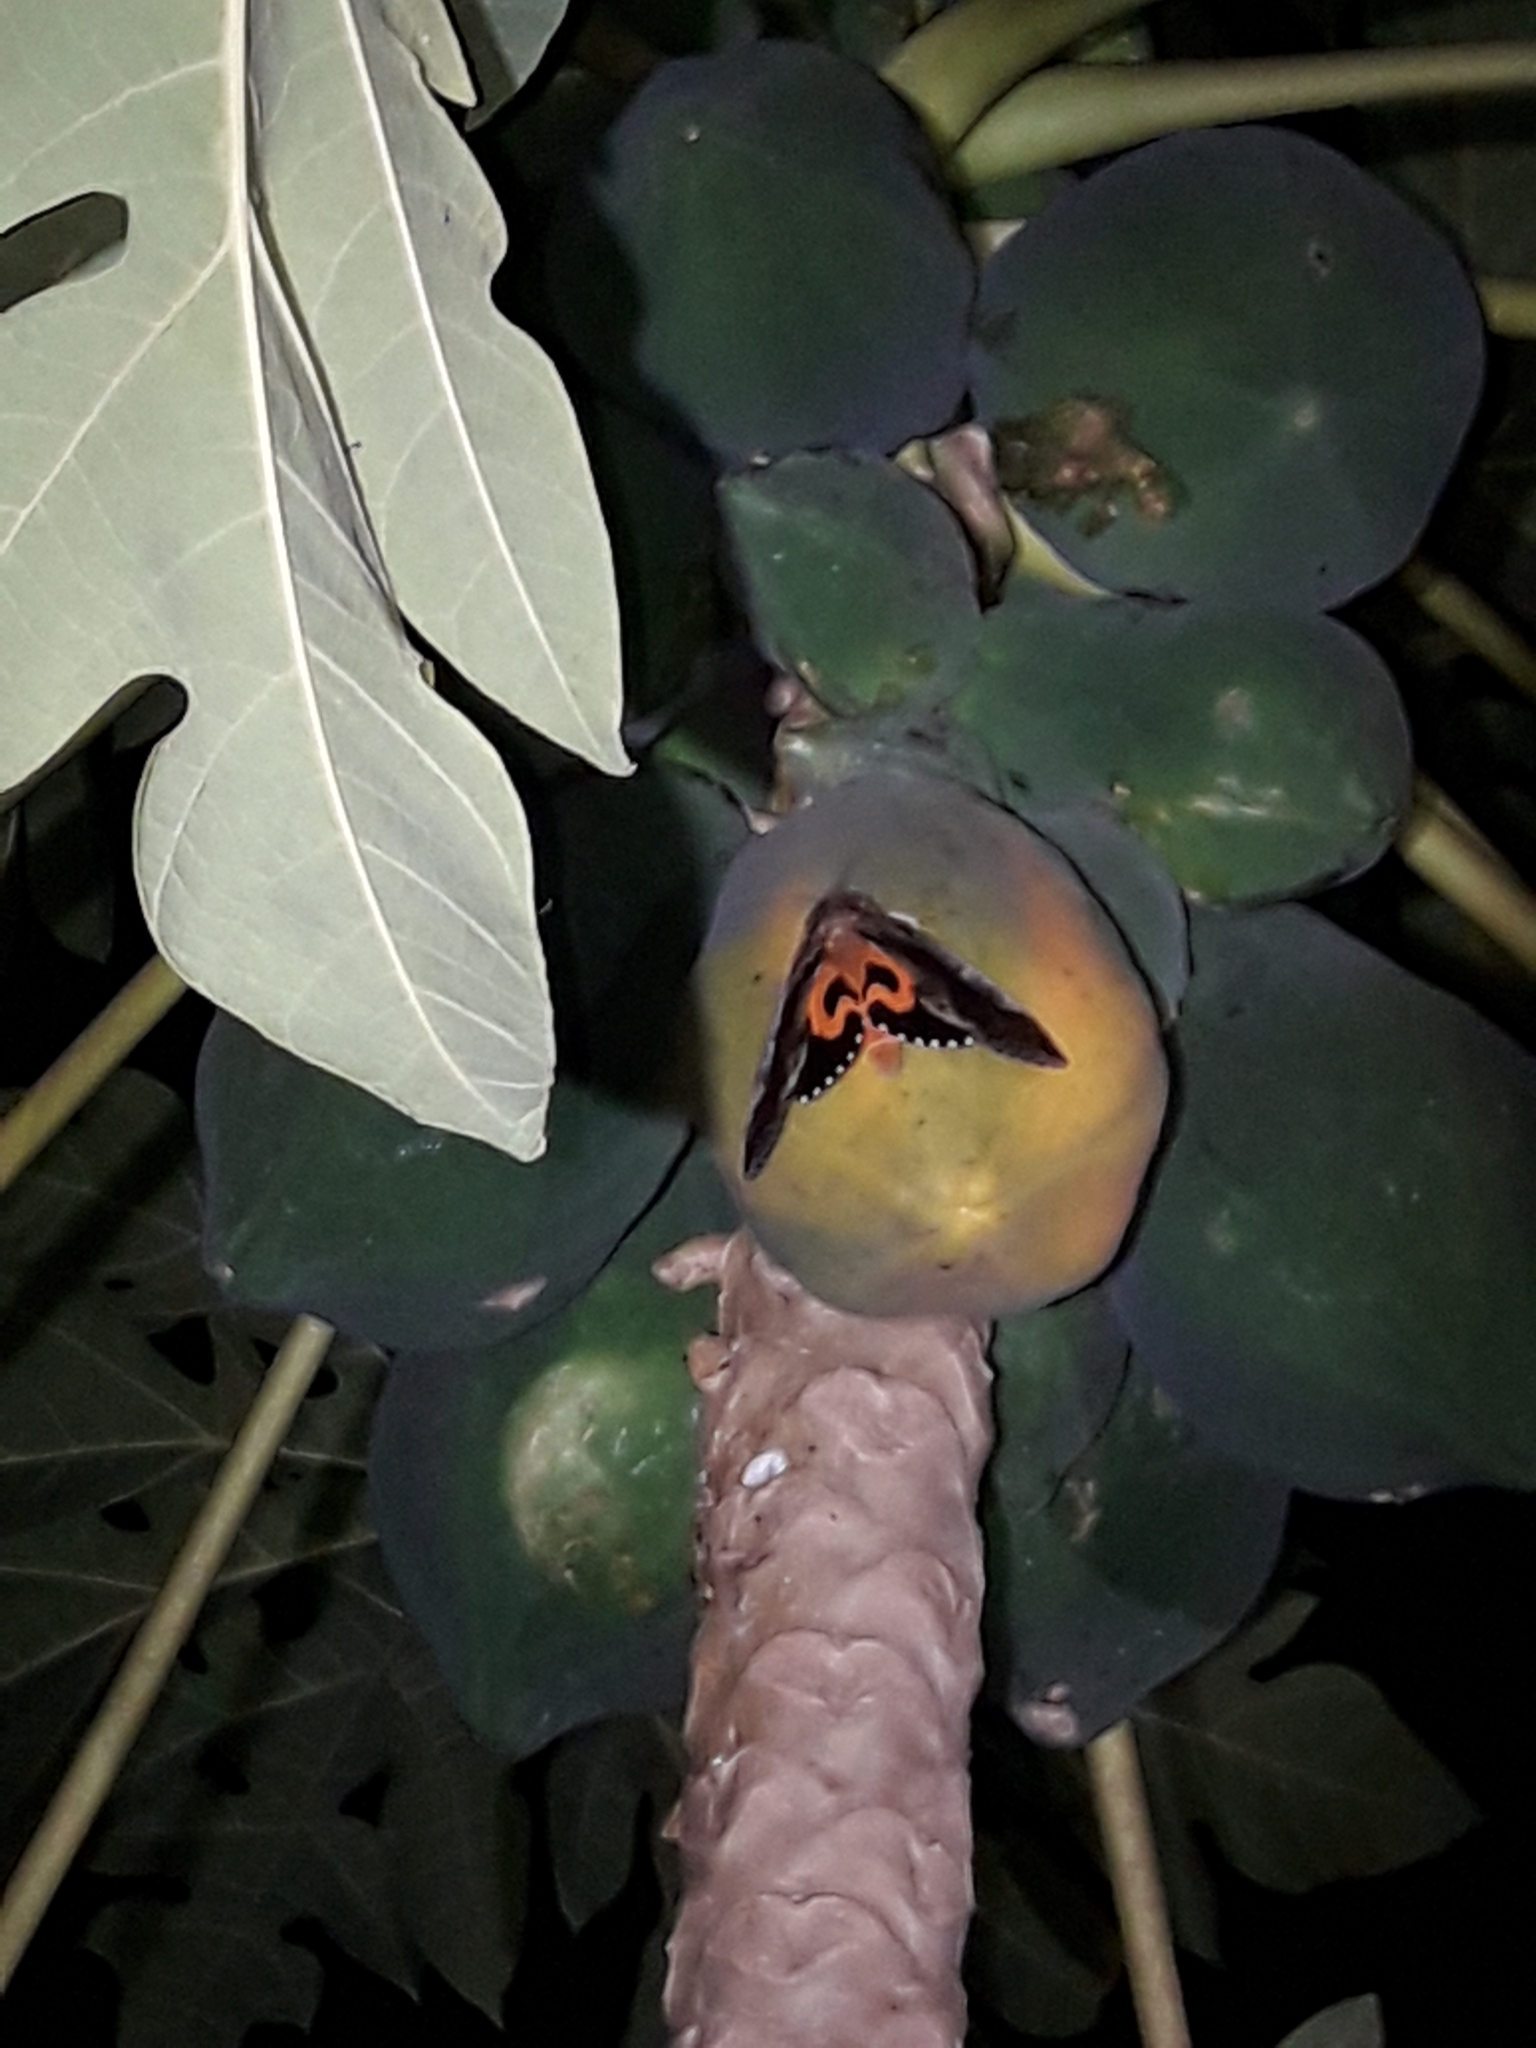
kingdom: Animalia
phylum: Arthropoda
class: Insecta
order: Lepidoptera
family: Erebidae
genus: Eudocima
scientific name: Eudocima phalonia
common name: Wasp
